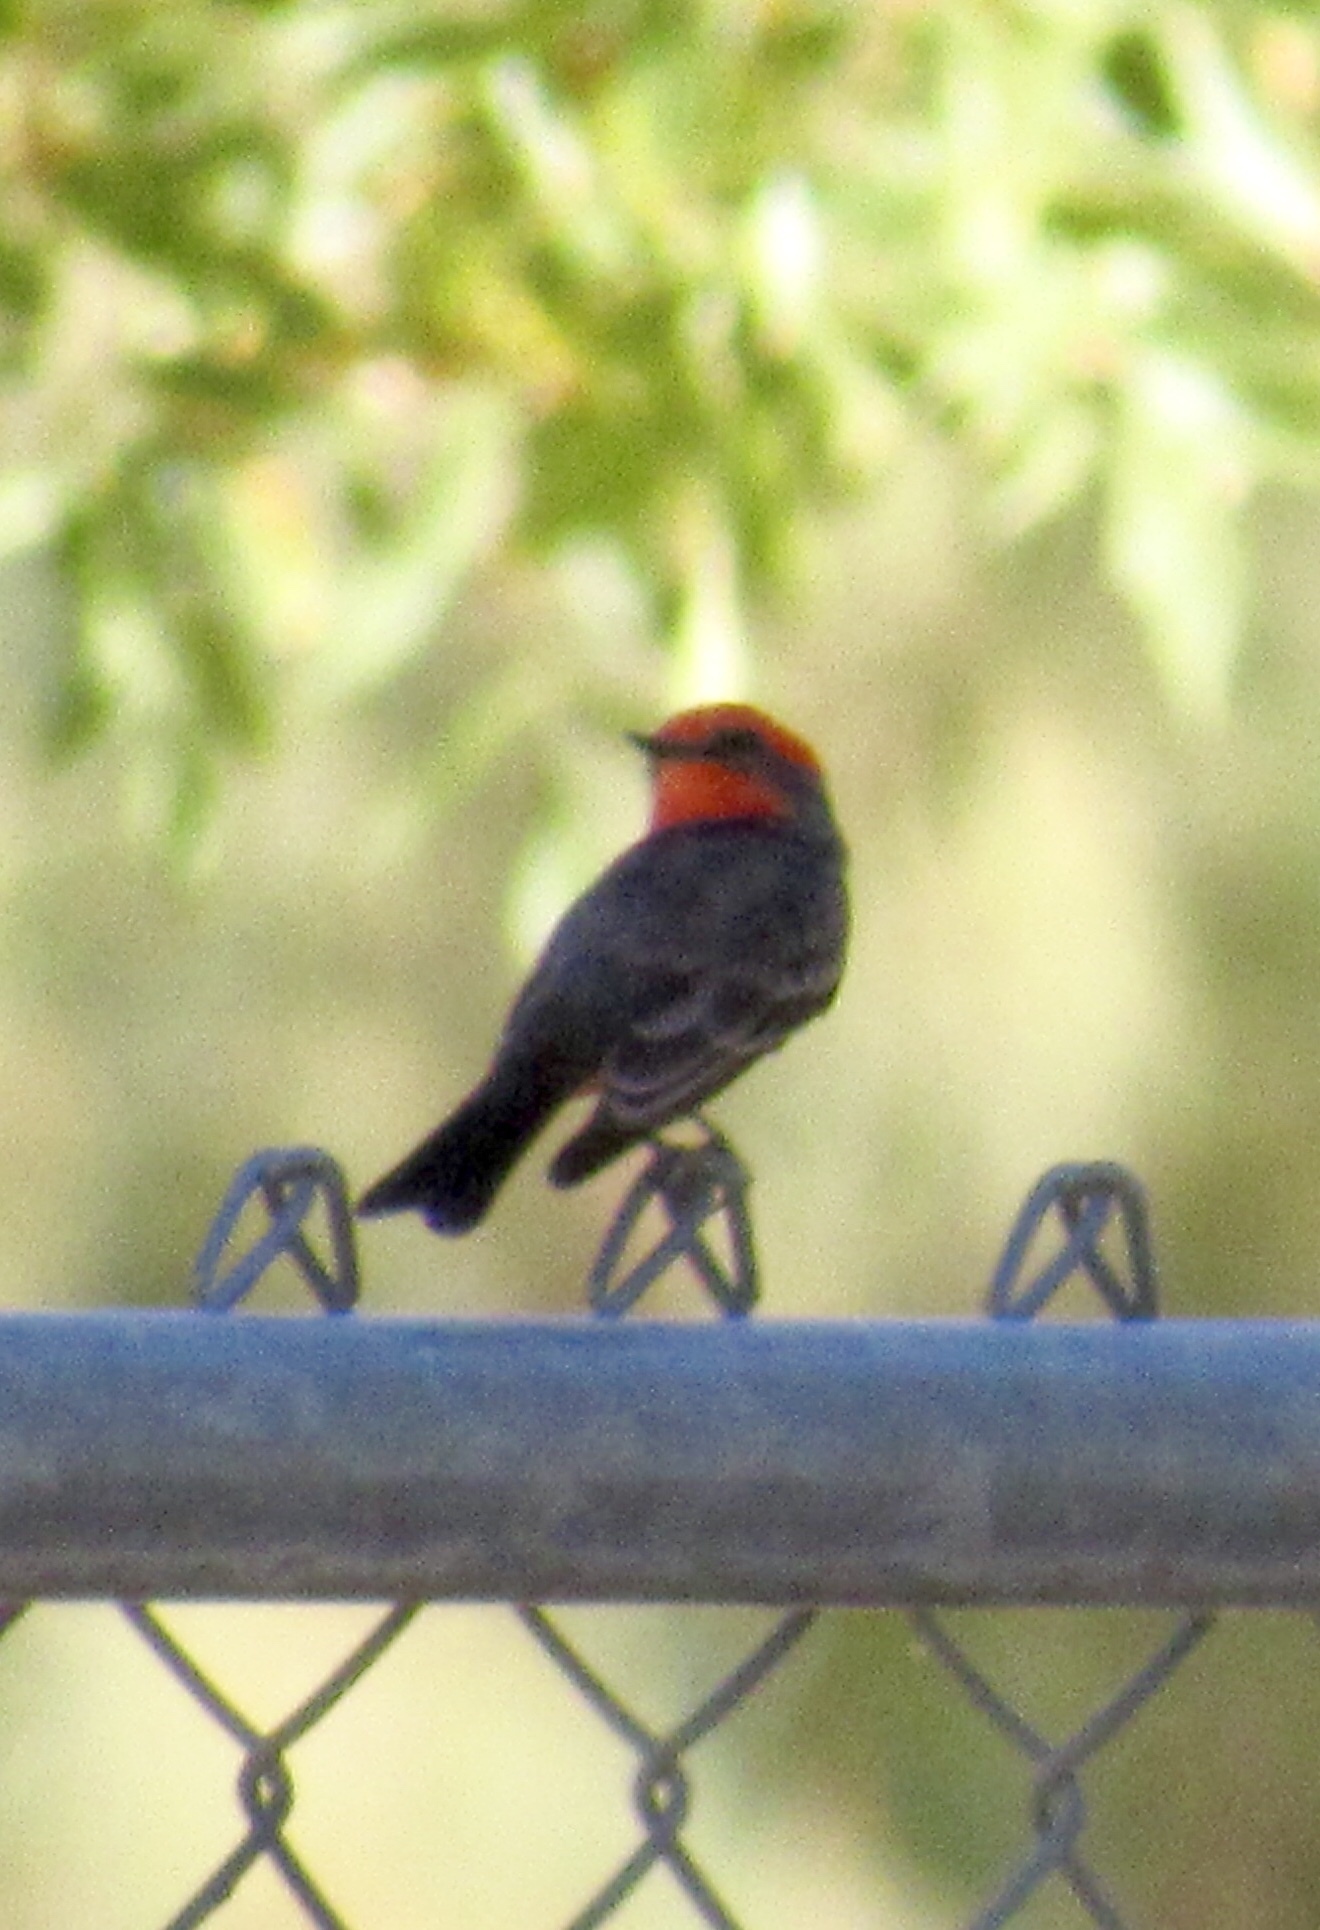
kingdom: Animalia
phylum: Chordata
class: Aves
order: Passeriformes
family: Tyrannidae
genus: Pyrocephalus
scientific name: Pyrocephalus rubinus
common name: Vermilion flycatcher
